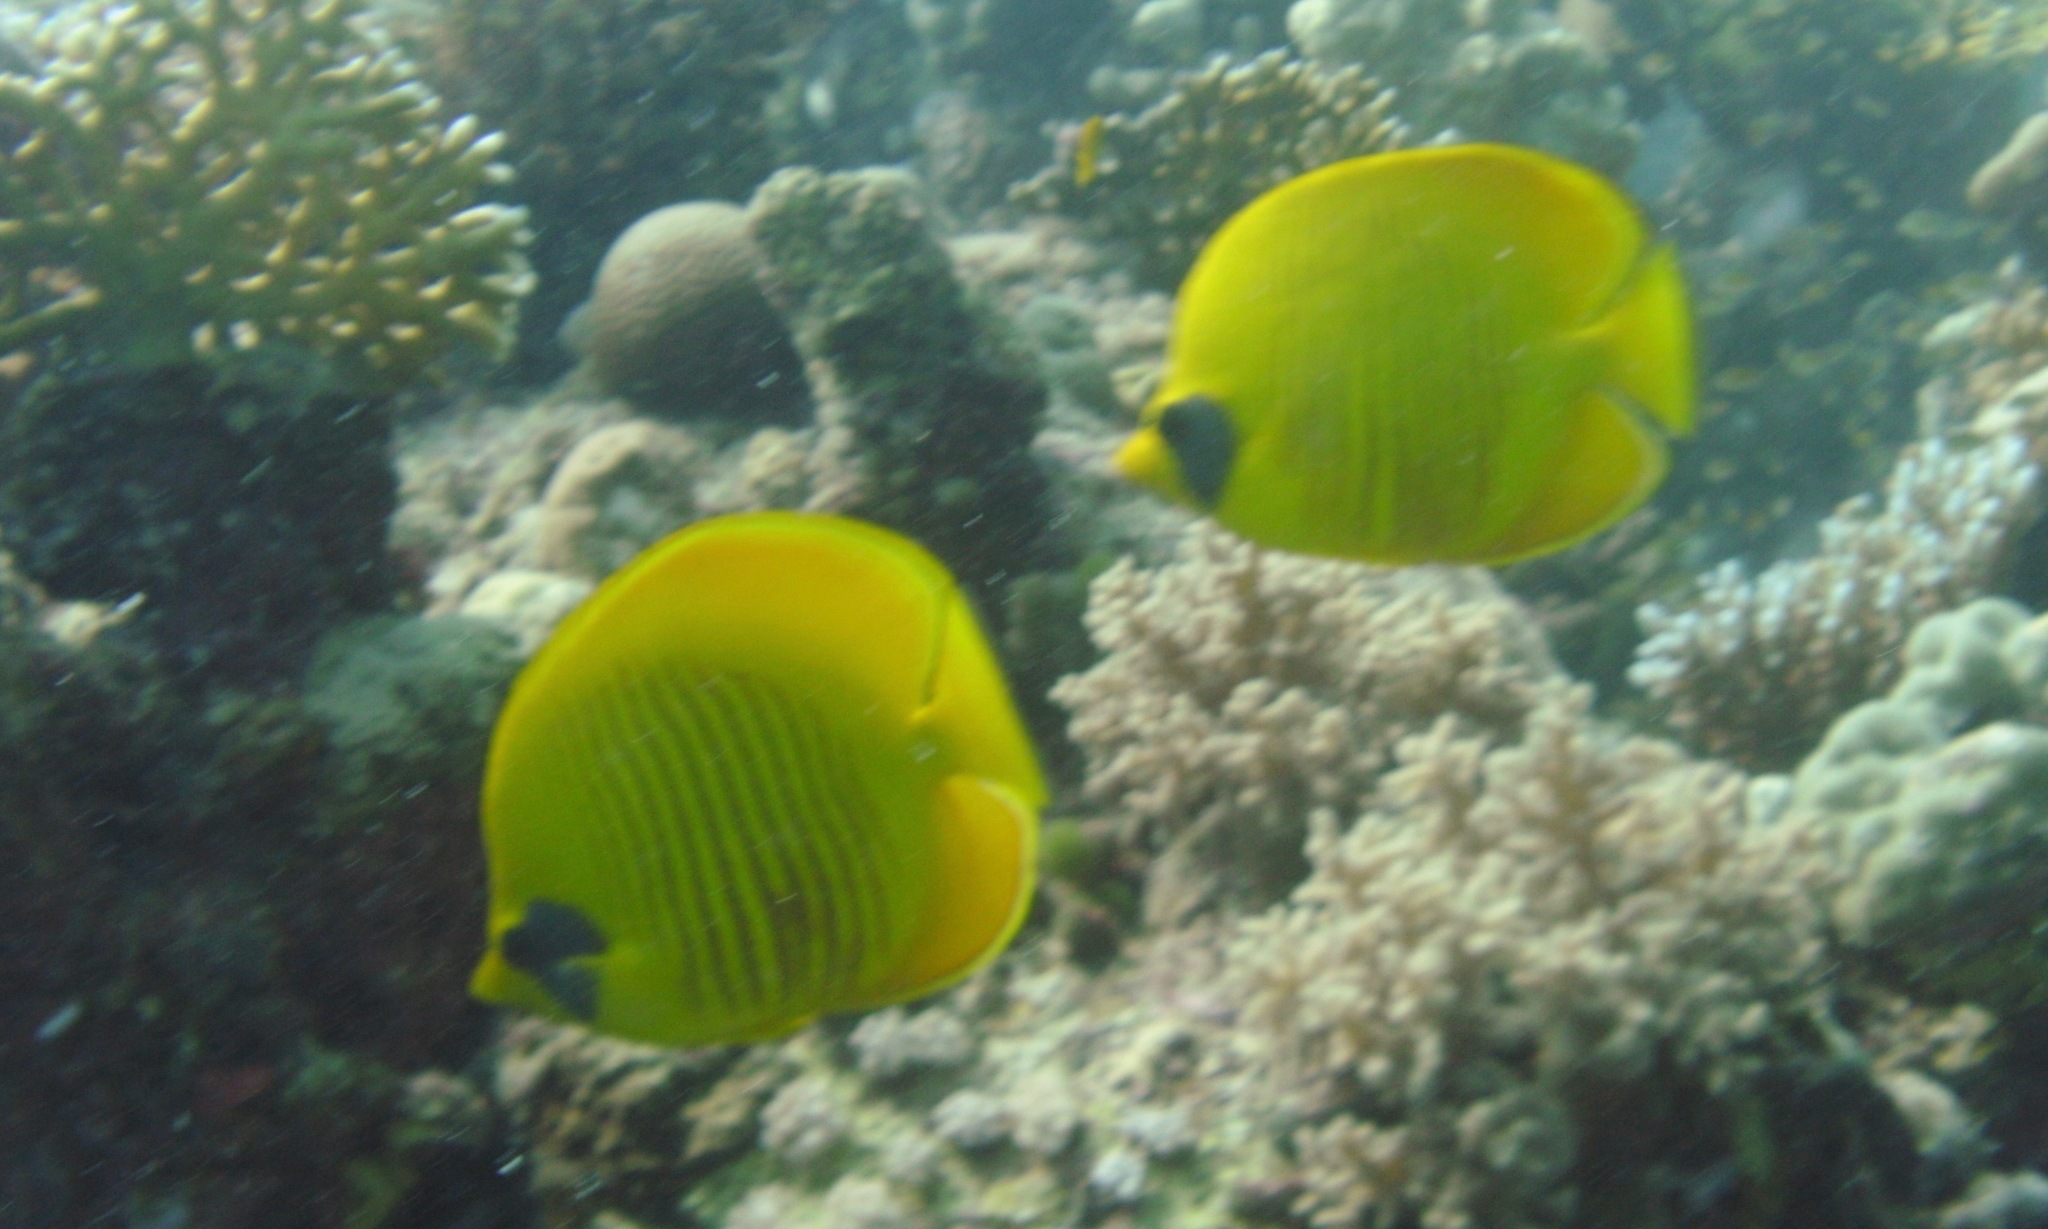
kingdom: Animalia
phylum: Chordata
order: Perciformes
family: Chaetodontidae
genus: Chaetodon
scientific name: Chaetodon semilarvatus
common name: Golden butterflyfish
